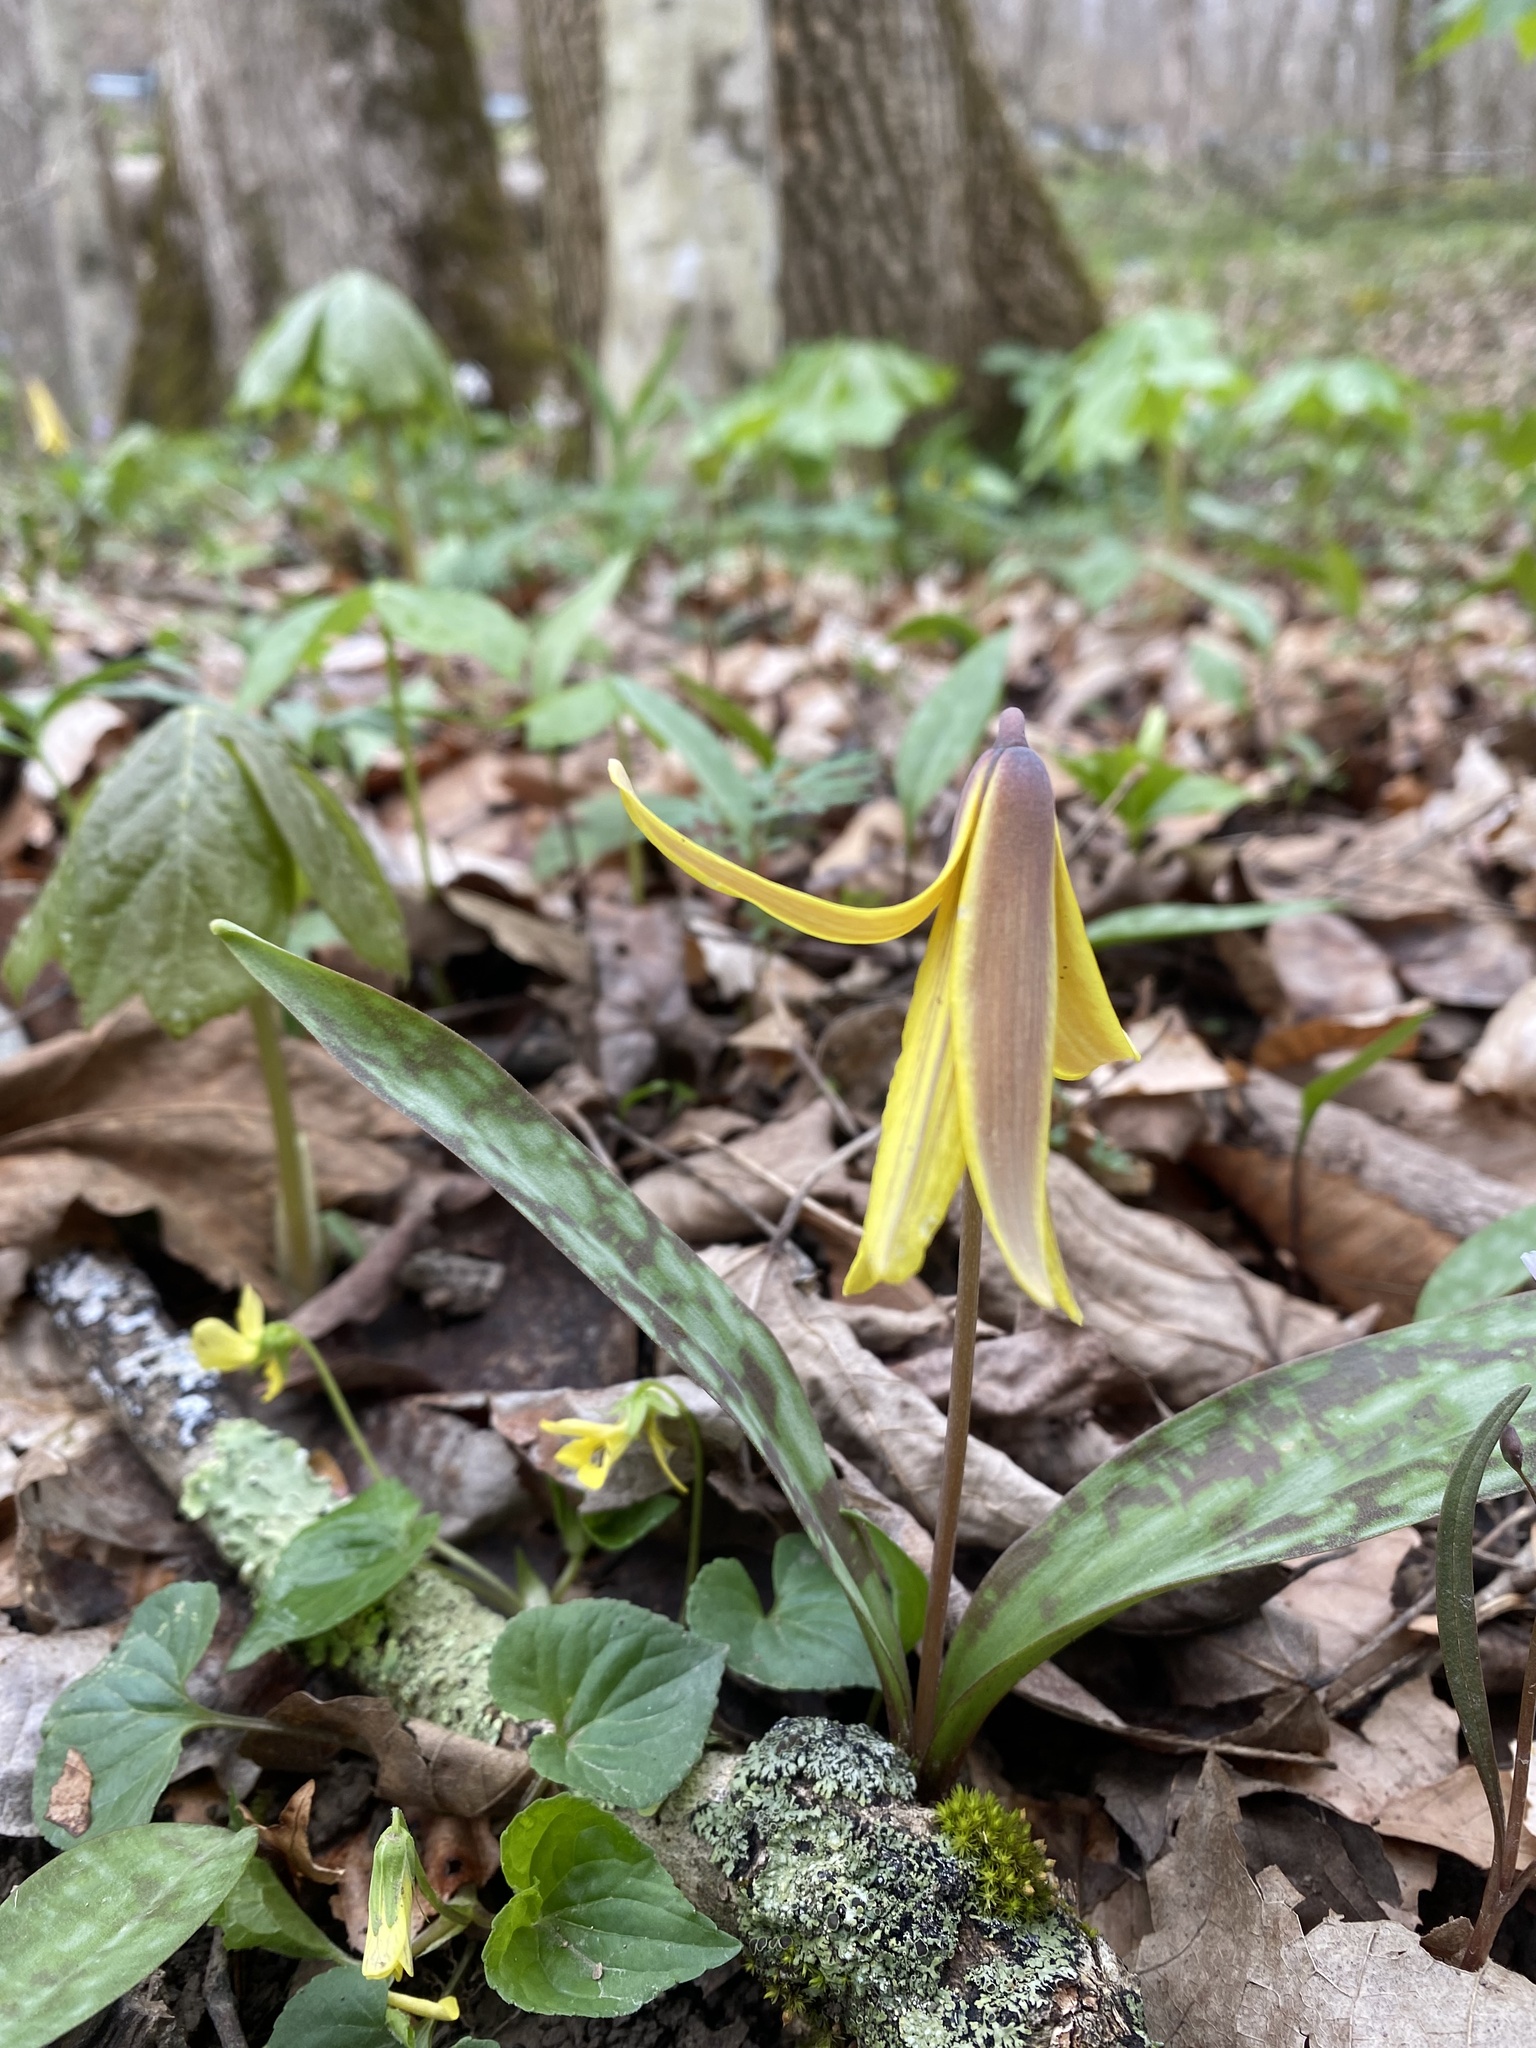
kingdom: Plantae
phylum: Tracheophyta
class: Liliopsida
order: Liliales
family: Liliaceae
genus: Erythronium
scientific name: Erythronium americanum
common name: Yellow adder's-tongue
